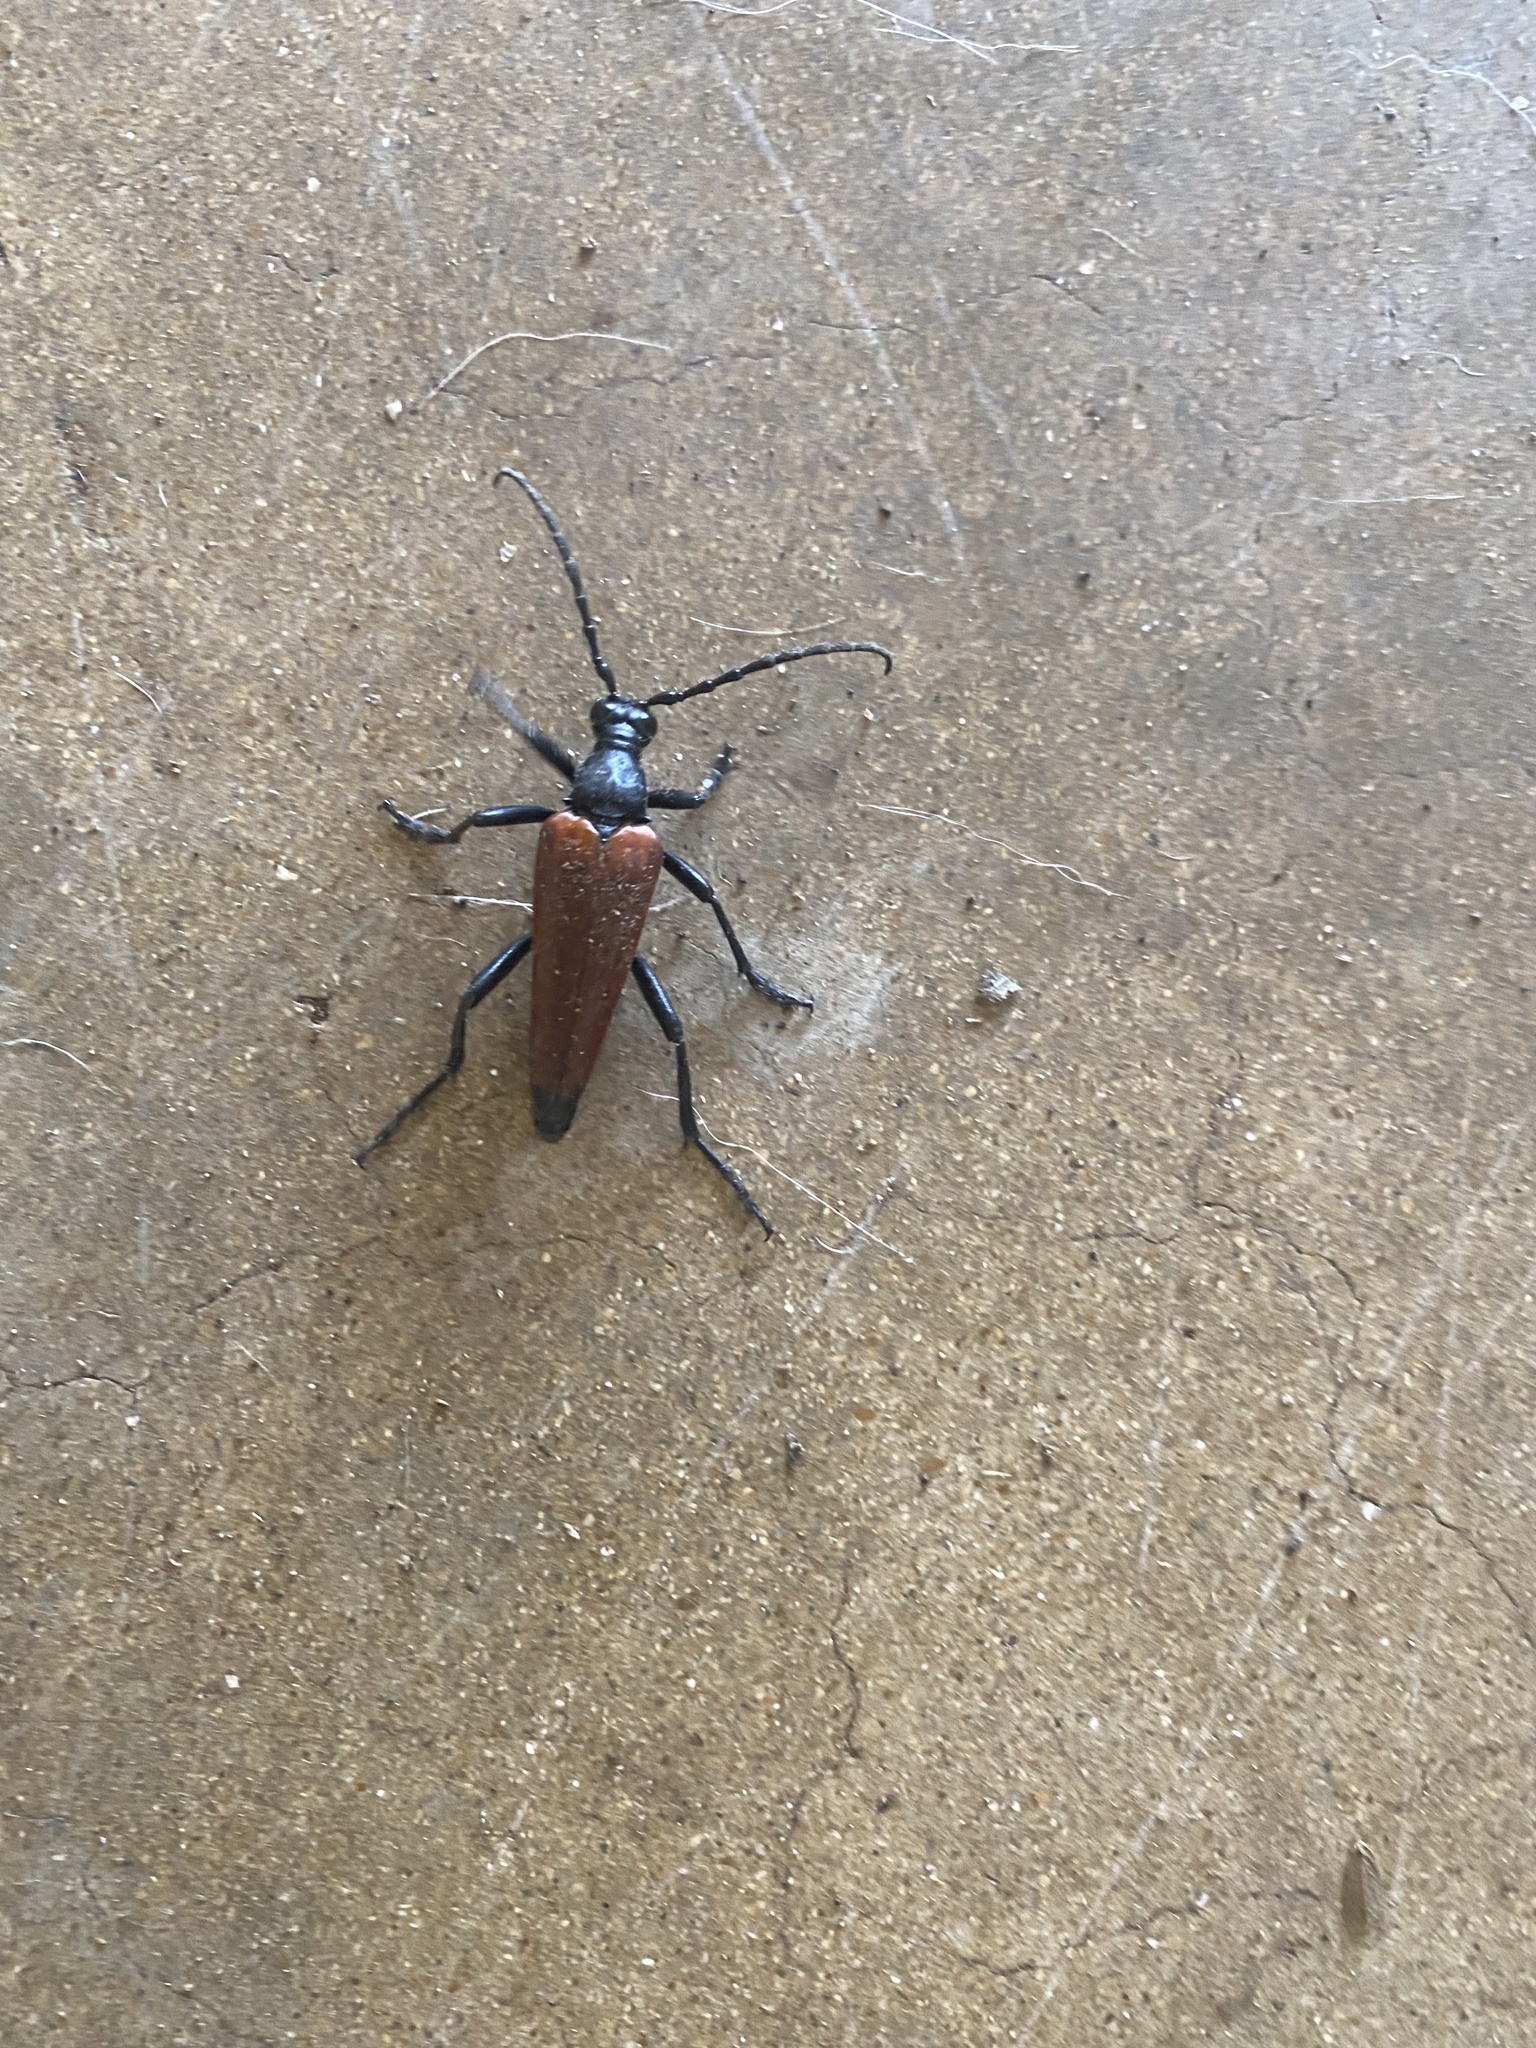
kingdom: Animalia
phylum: Arthropoda
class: Insecta
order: Coleoptera
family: Cerambycidae
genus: Stenelytrana
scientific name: Stenelytrana gigas
